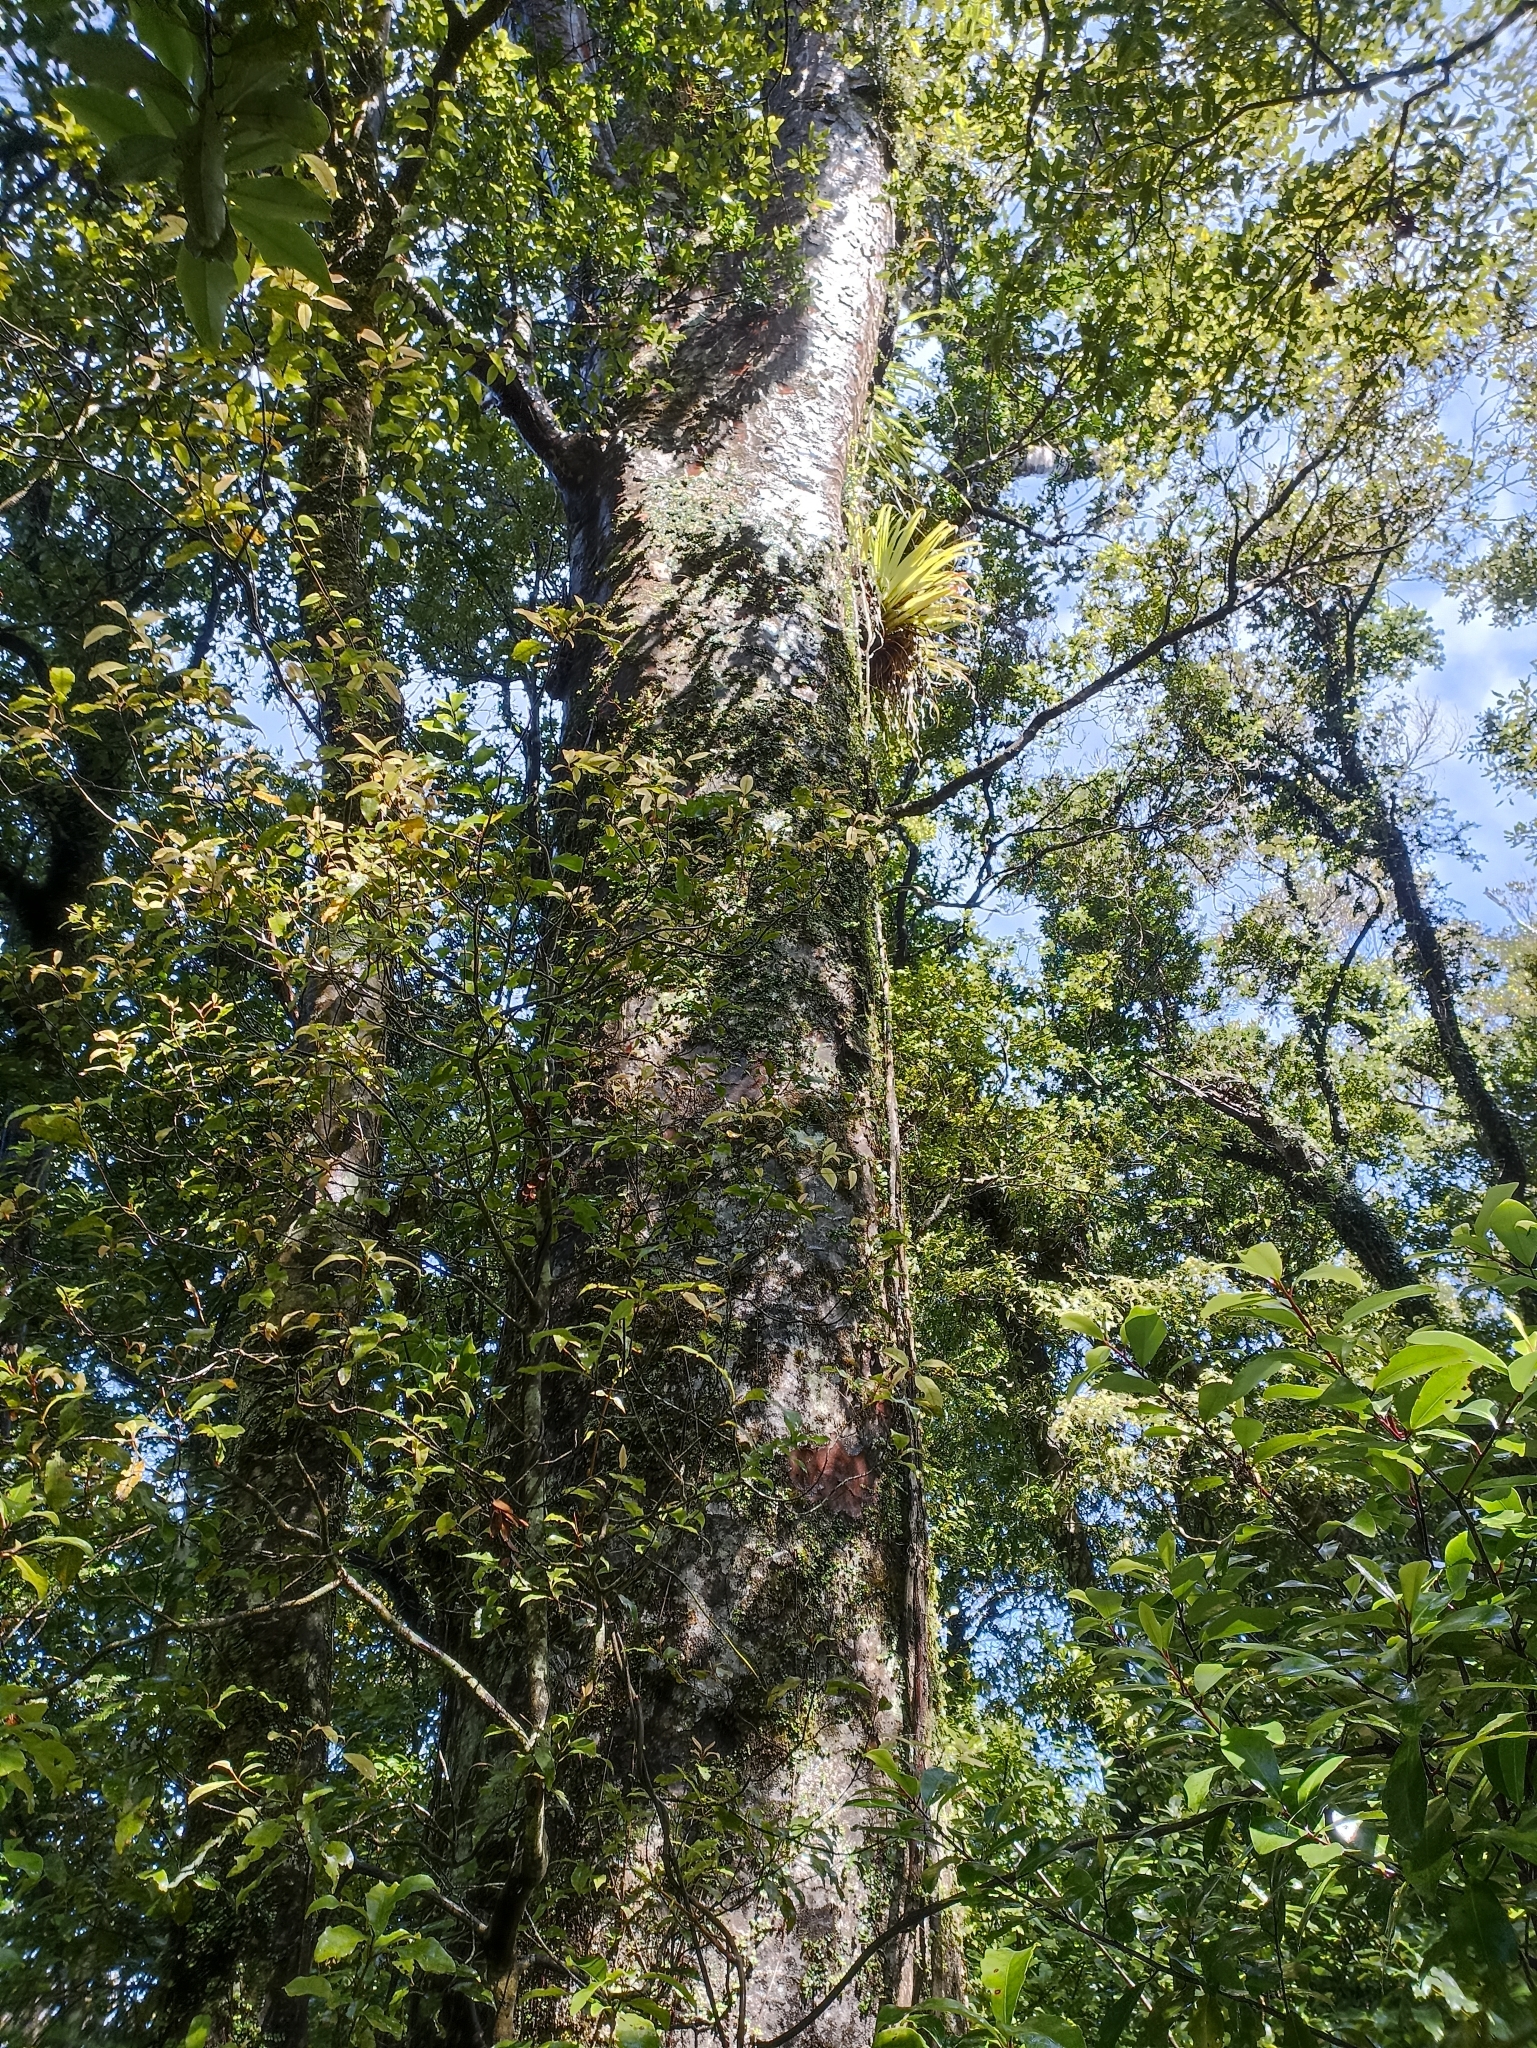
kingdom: Plantae
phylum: Tracheophyta
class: Pinopsida
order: Pinales
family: Araucariaceae
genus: Agathis
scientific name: Agathis australis
